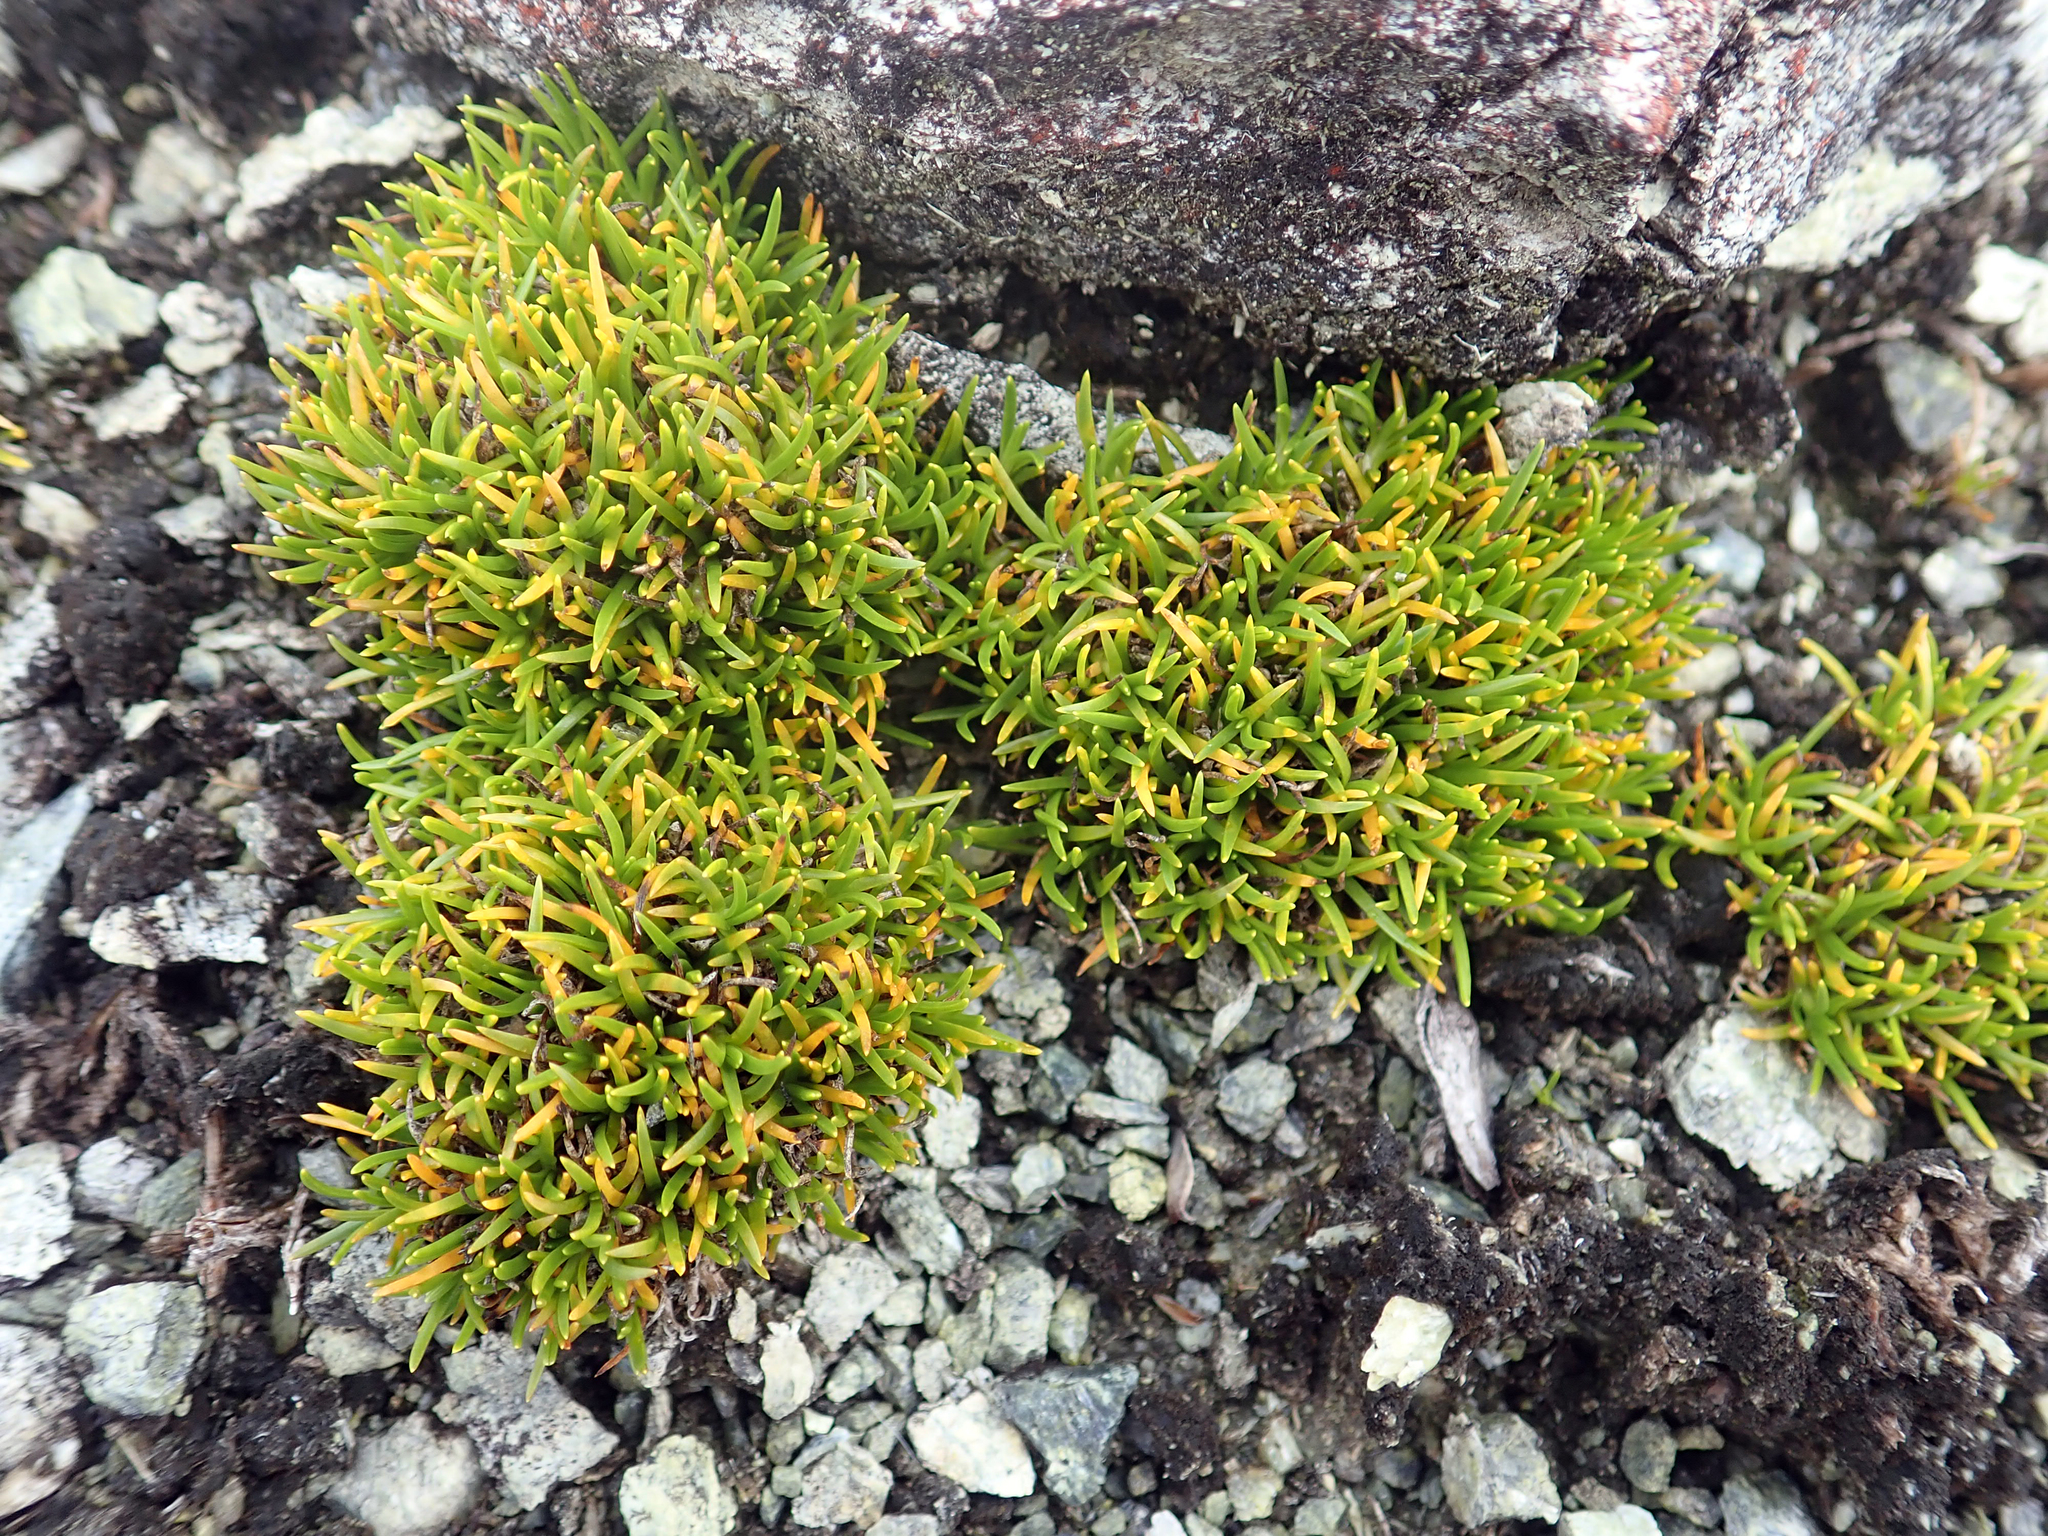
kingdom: Plantae
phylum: Tracheophyta
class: Magnoliopsida
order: Caryophyllales
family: Caryophyllaceae
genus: Colobanthus
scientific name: Colobanthus wallii
